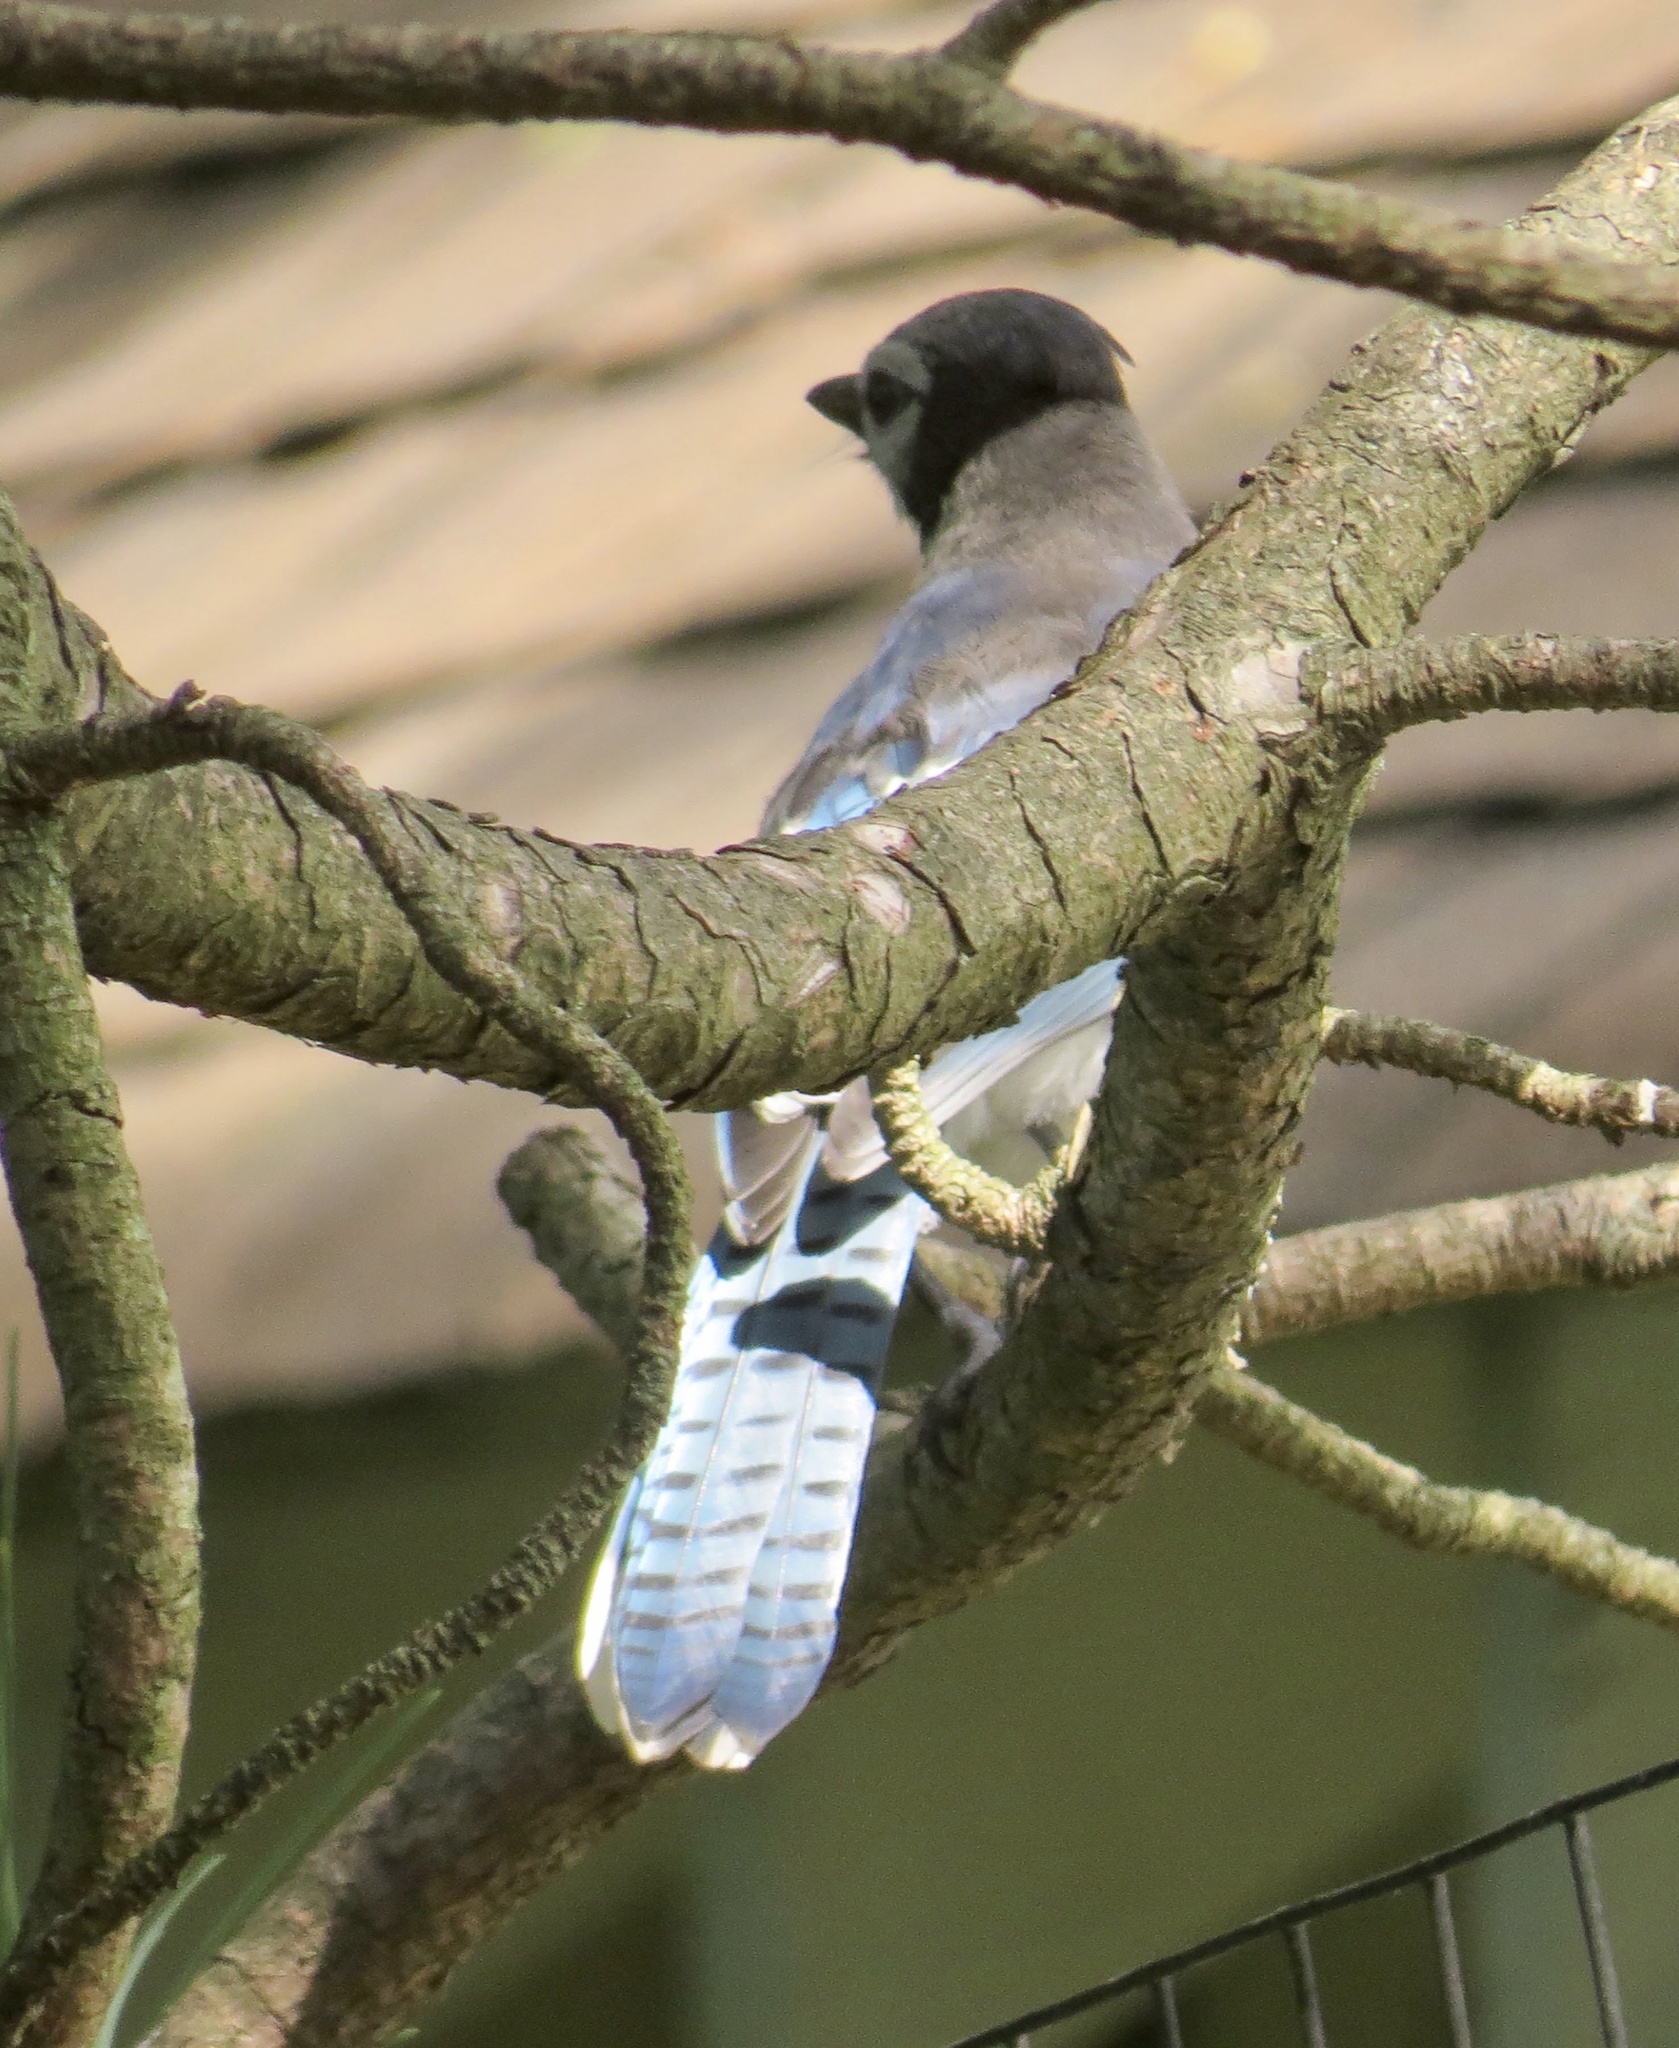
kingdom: Animalia
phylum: Chordata
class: Aves
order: Passeriformes
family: Corvidae
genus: Cyanocitta
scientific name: Cyanocitta cristata
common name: Blue jay
